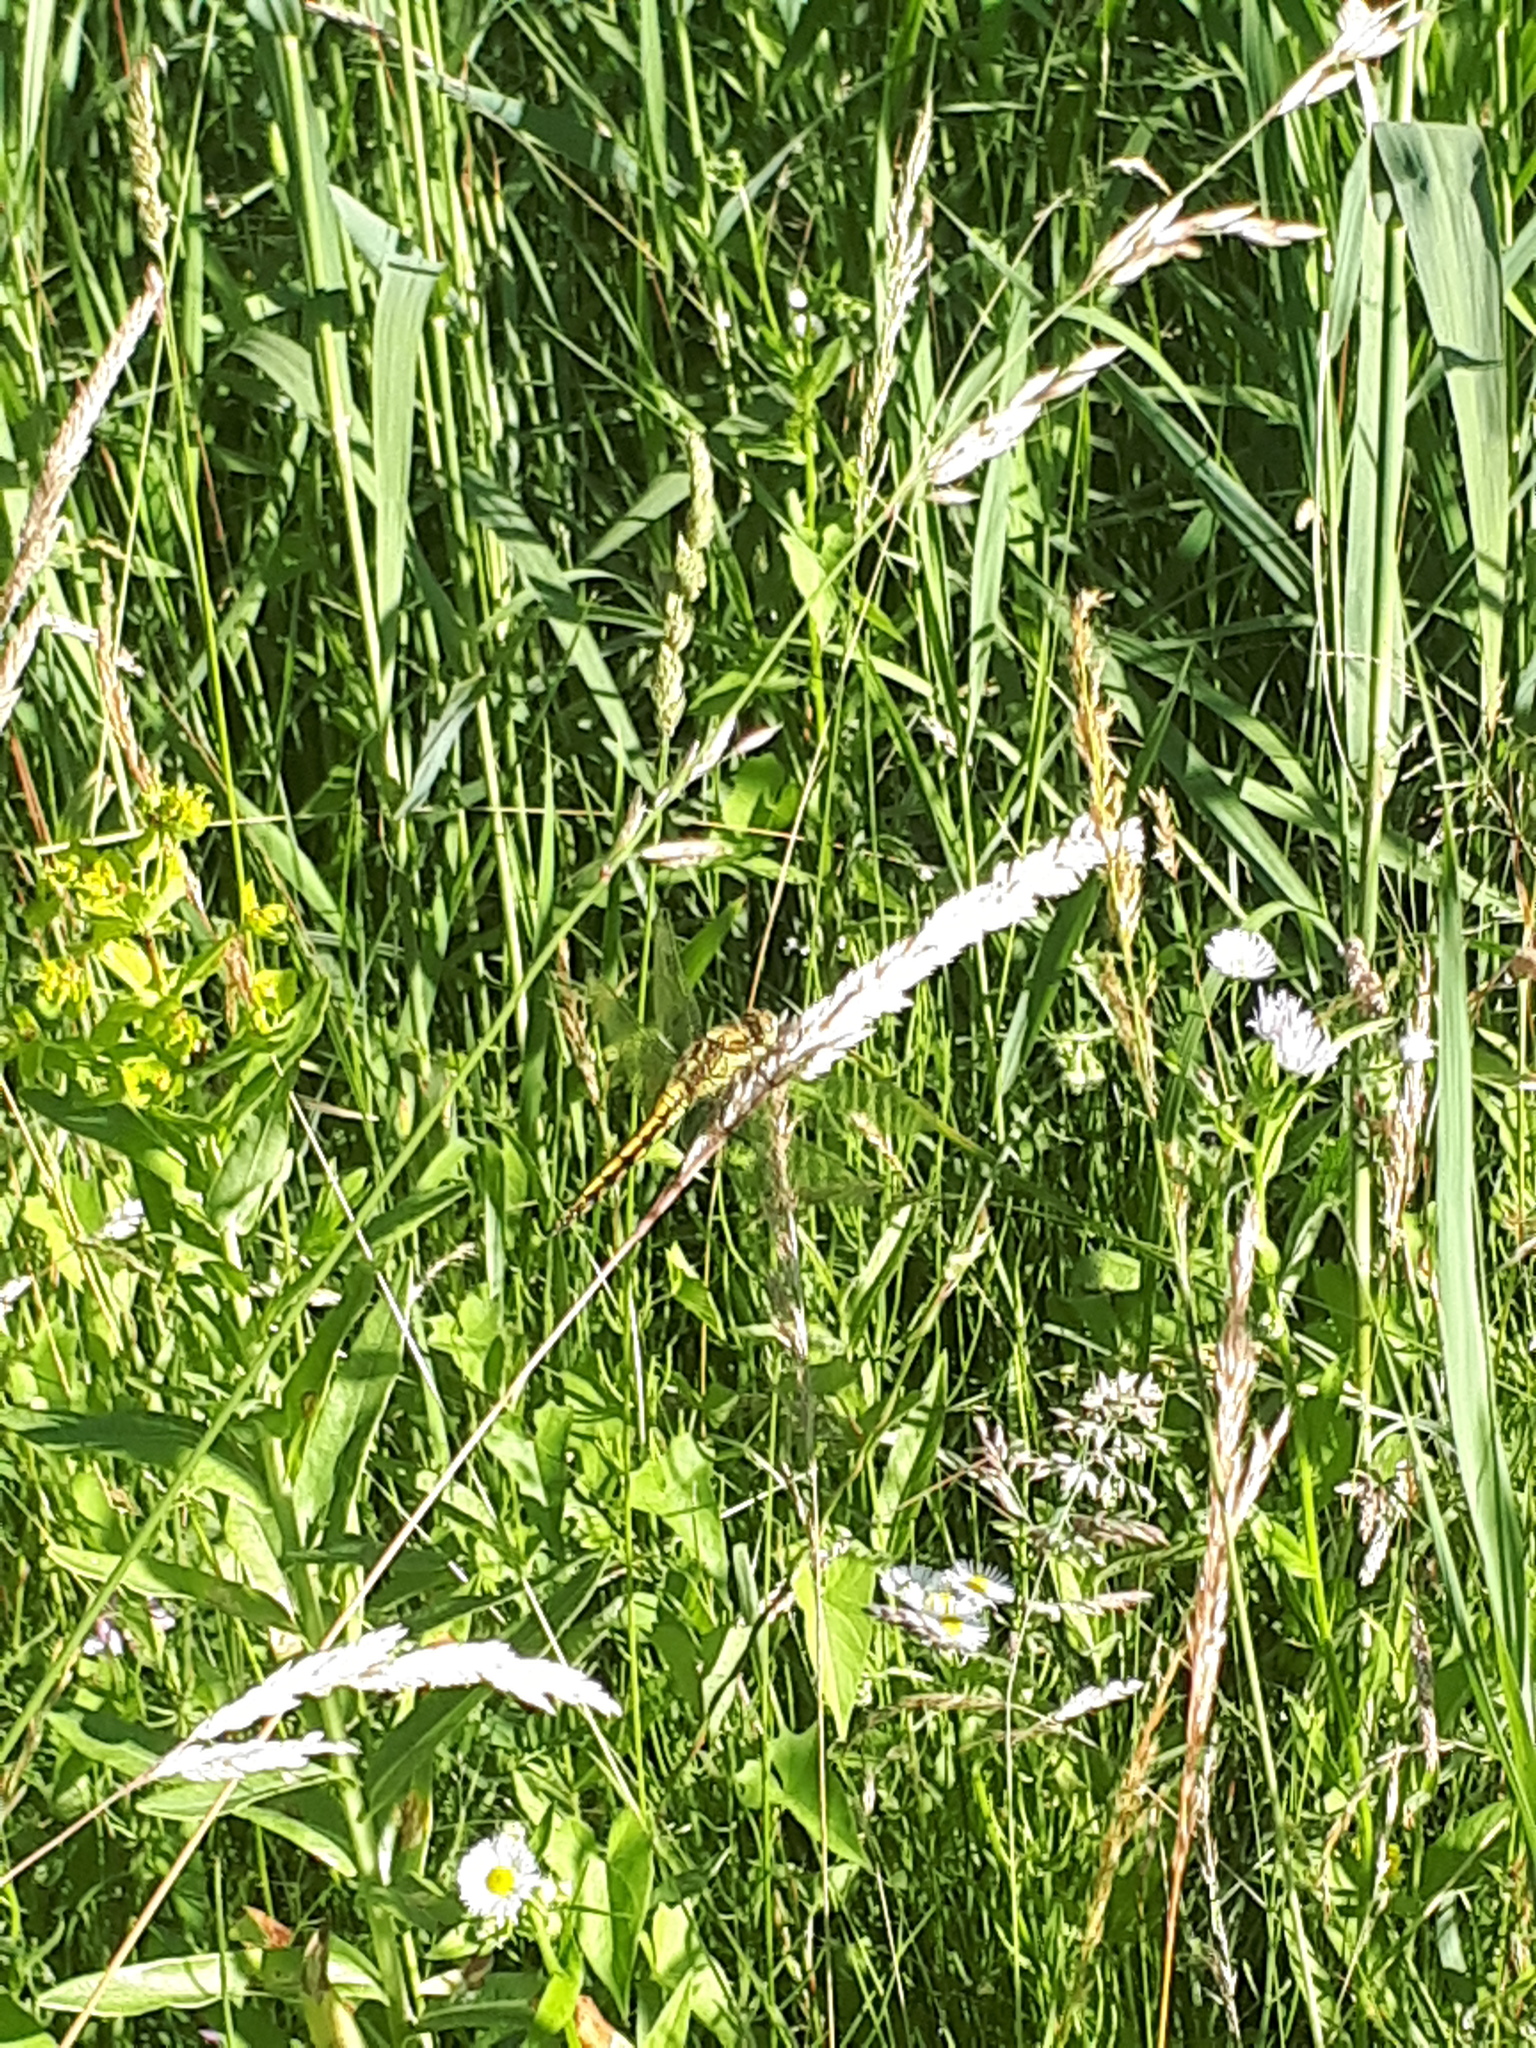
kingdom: Animalia
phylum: Arthropoda
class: Insecta
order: Odonata
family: Libellulidae
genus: Orthetrum
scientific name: Orthetrum cancellatum
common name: Black-tailed skimmer
